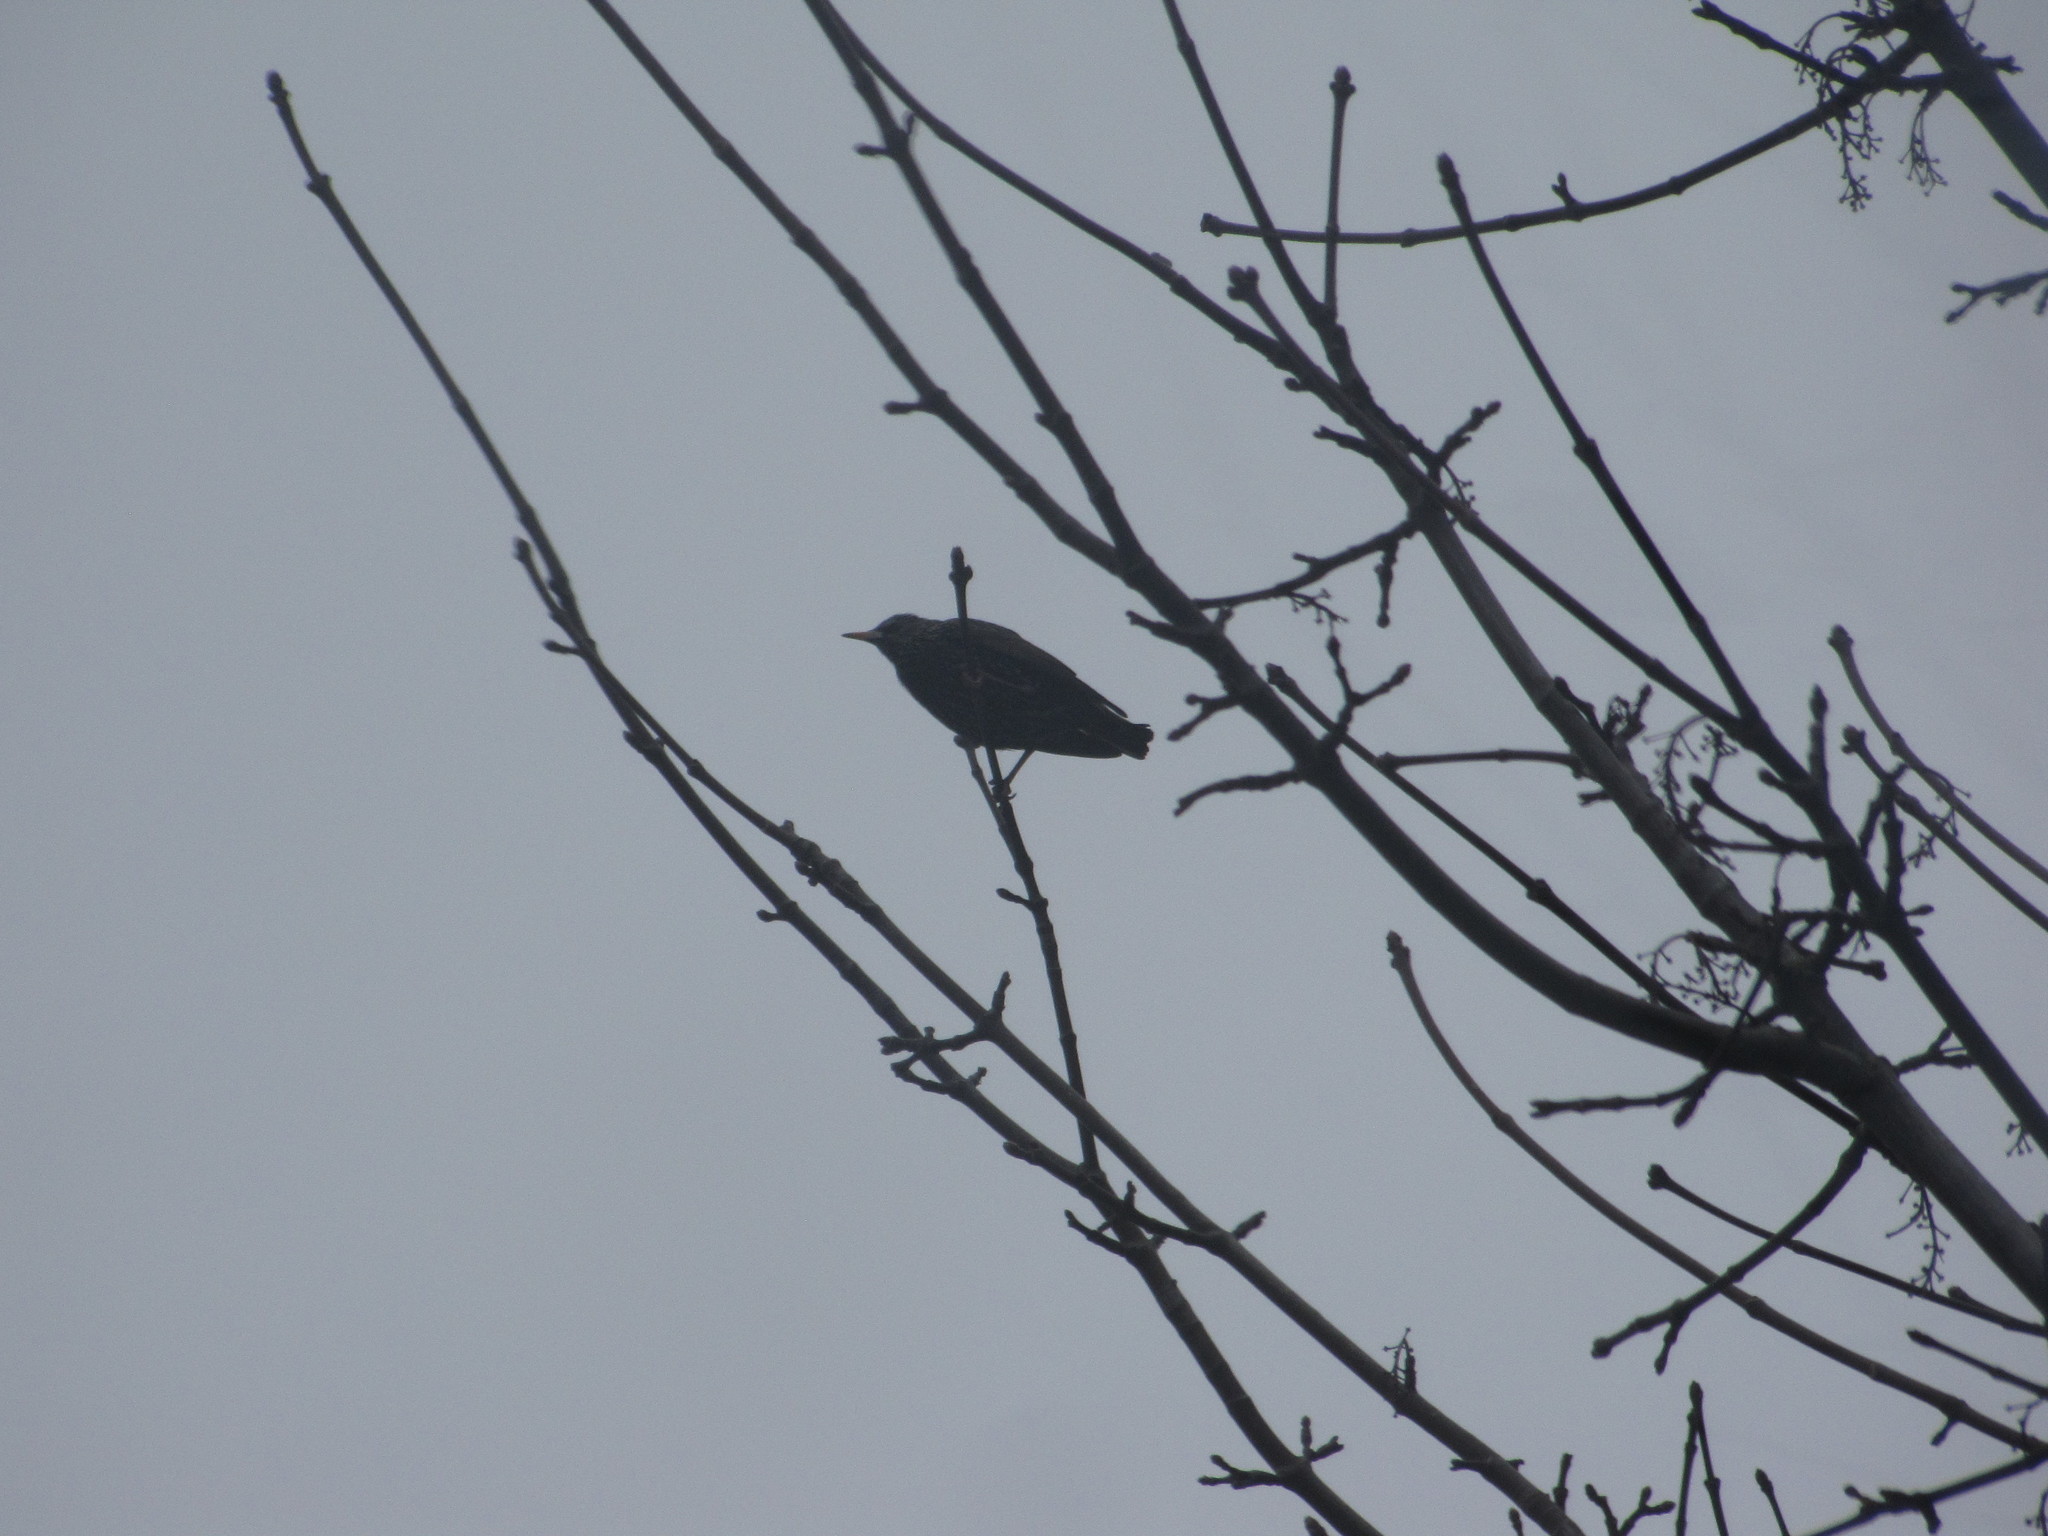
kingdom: Animalia
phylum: Chordata
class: Aves
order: Passeriformes
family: Sturnidae
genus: Sturnus
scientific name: Sturnus vulgaris
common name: Common starling
